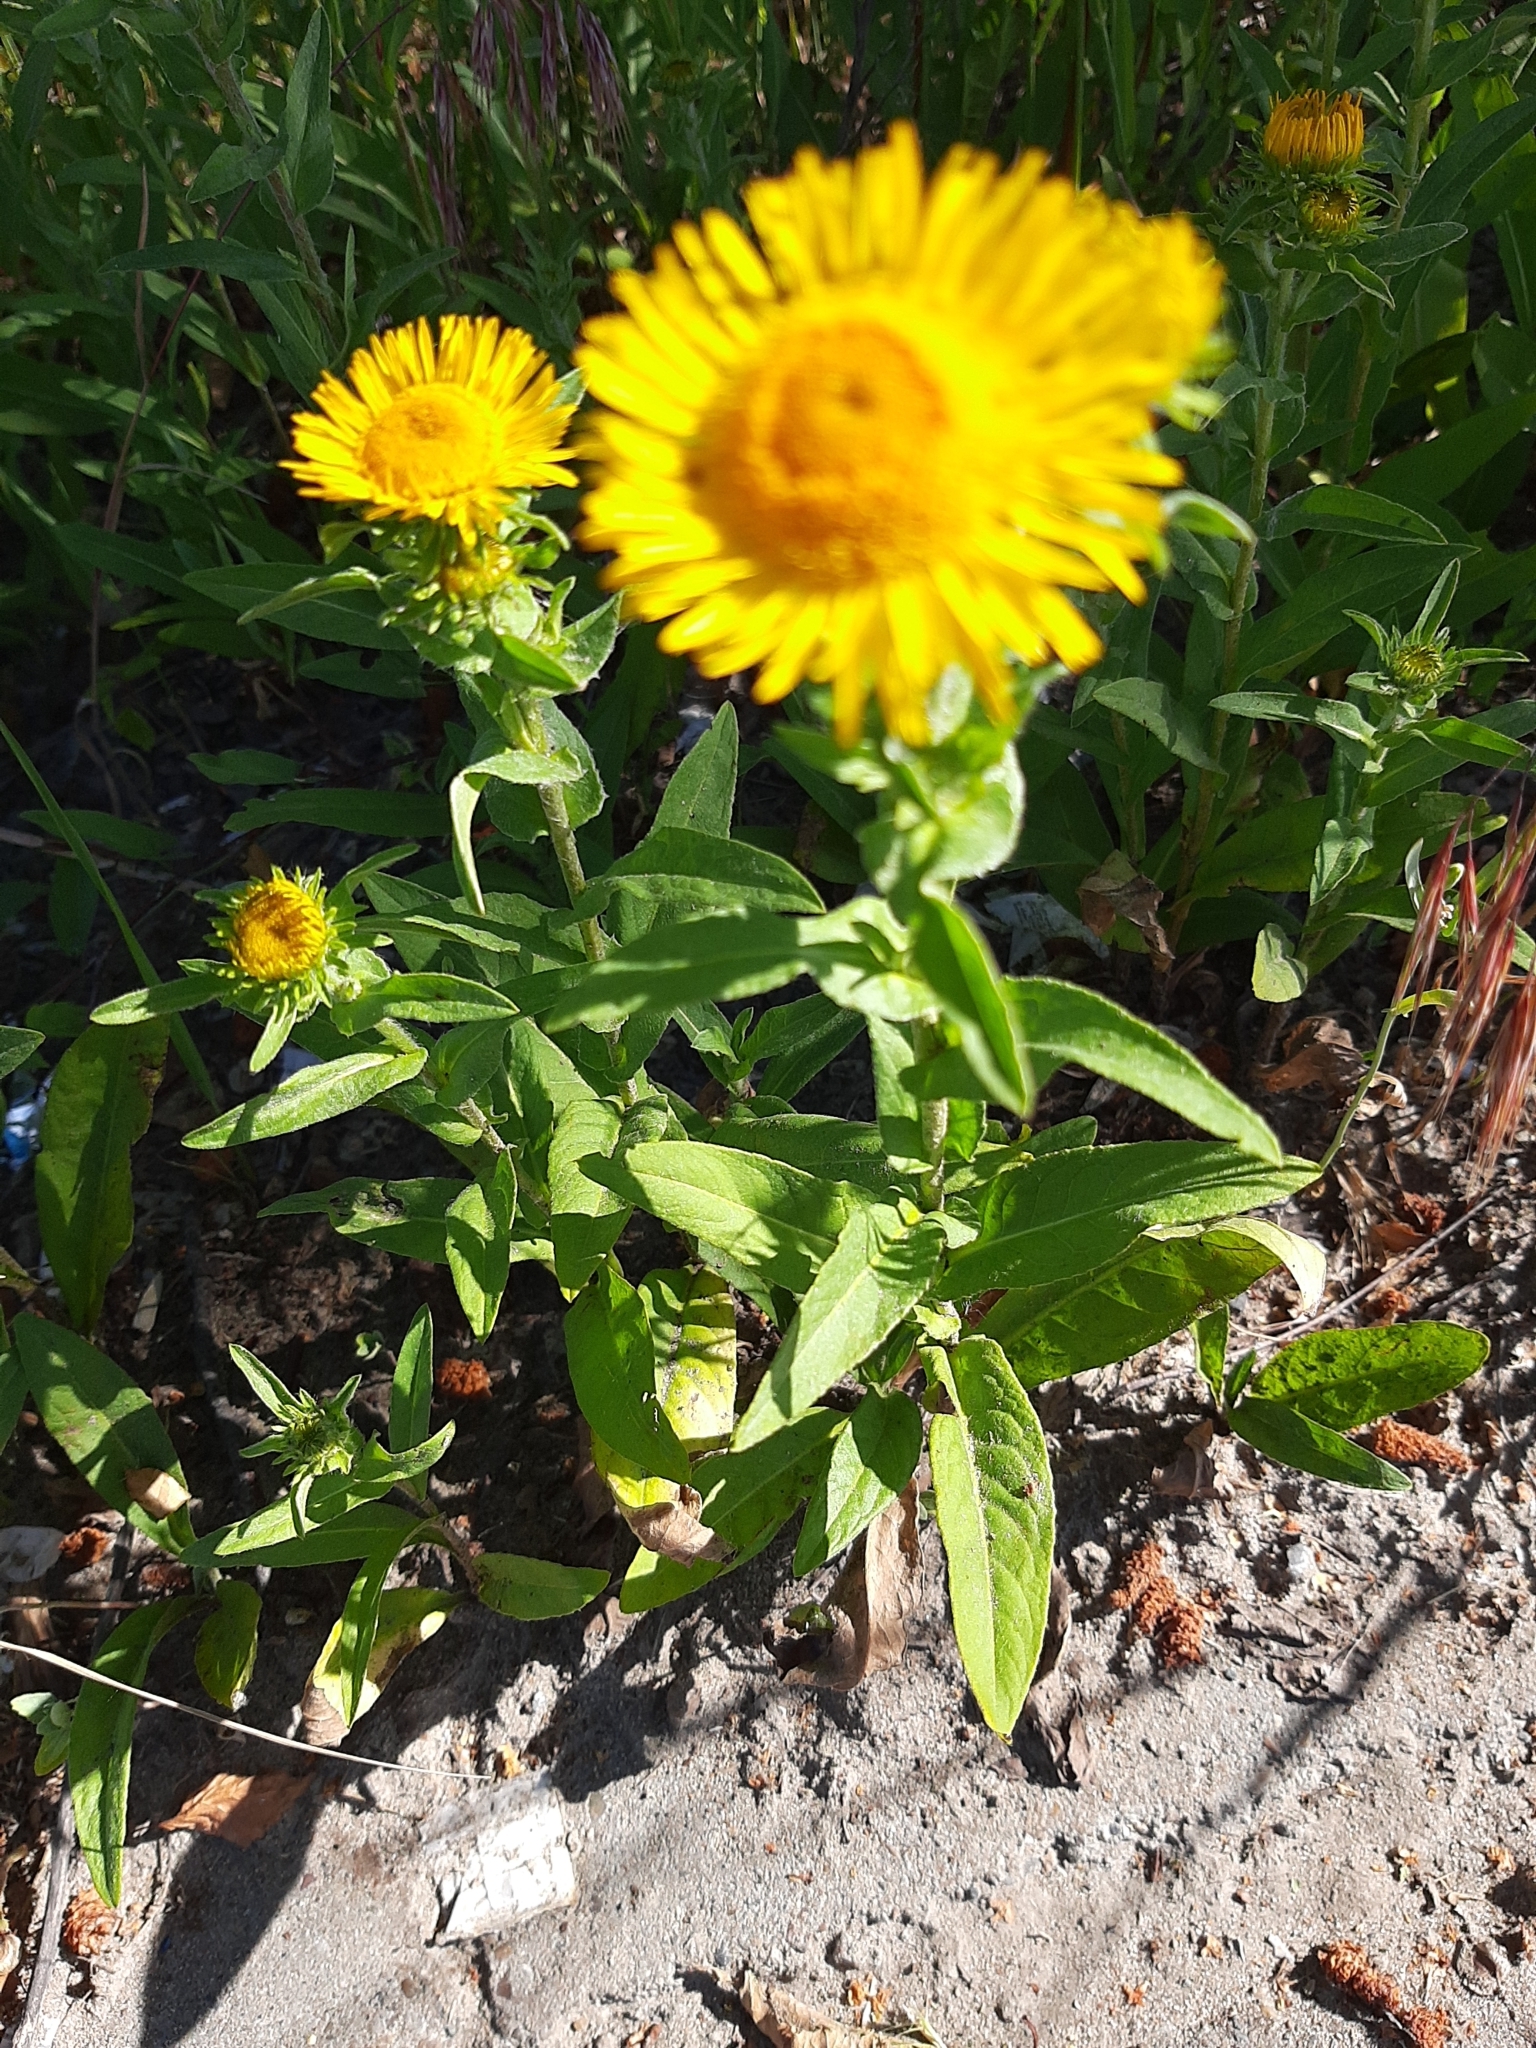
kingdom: Plantae
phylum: Tracheophyta
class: Magnoliopsida
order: Asterales
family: Asteraceae
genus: Pentanema
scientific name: Pentanema britannicum
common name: British elecampane
